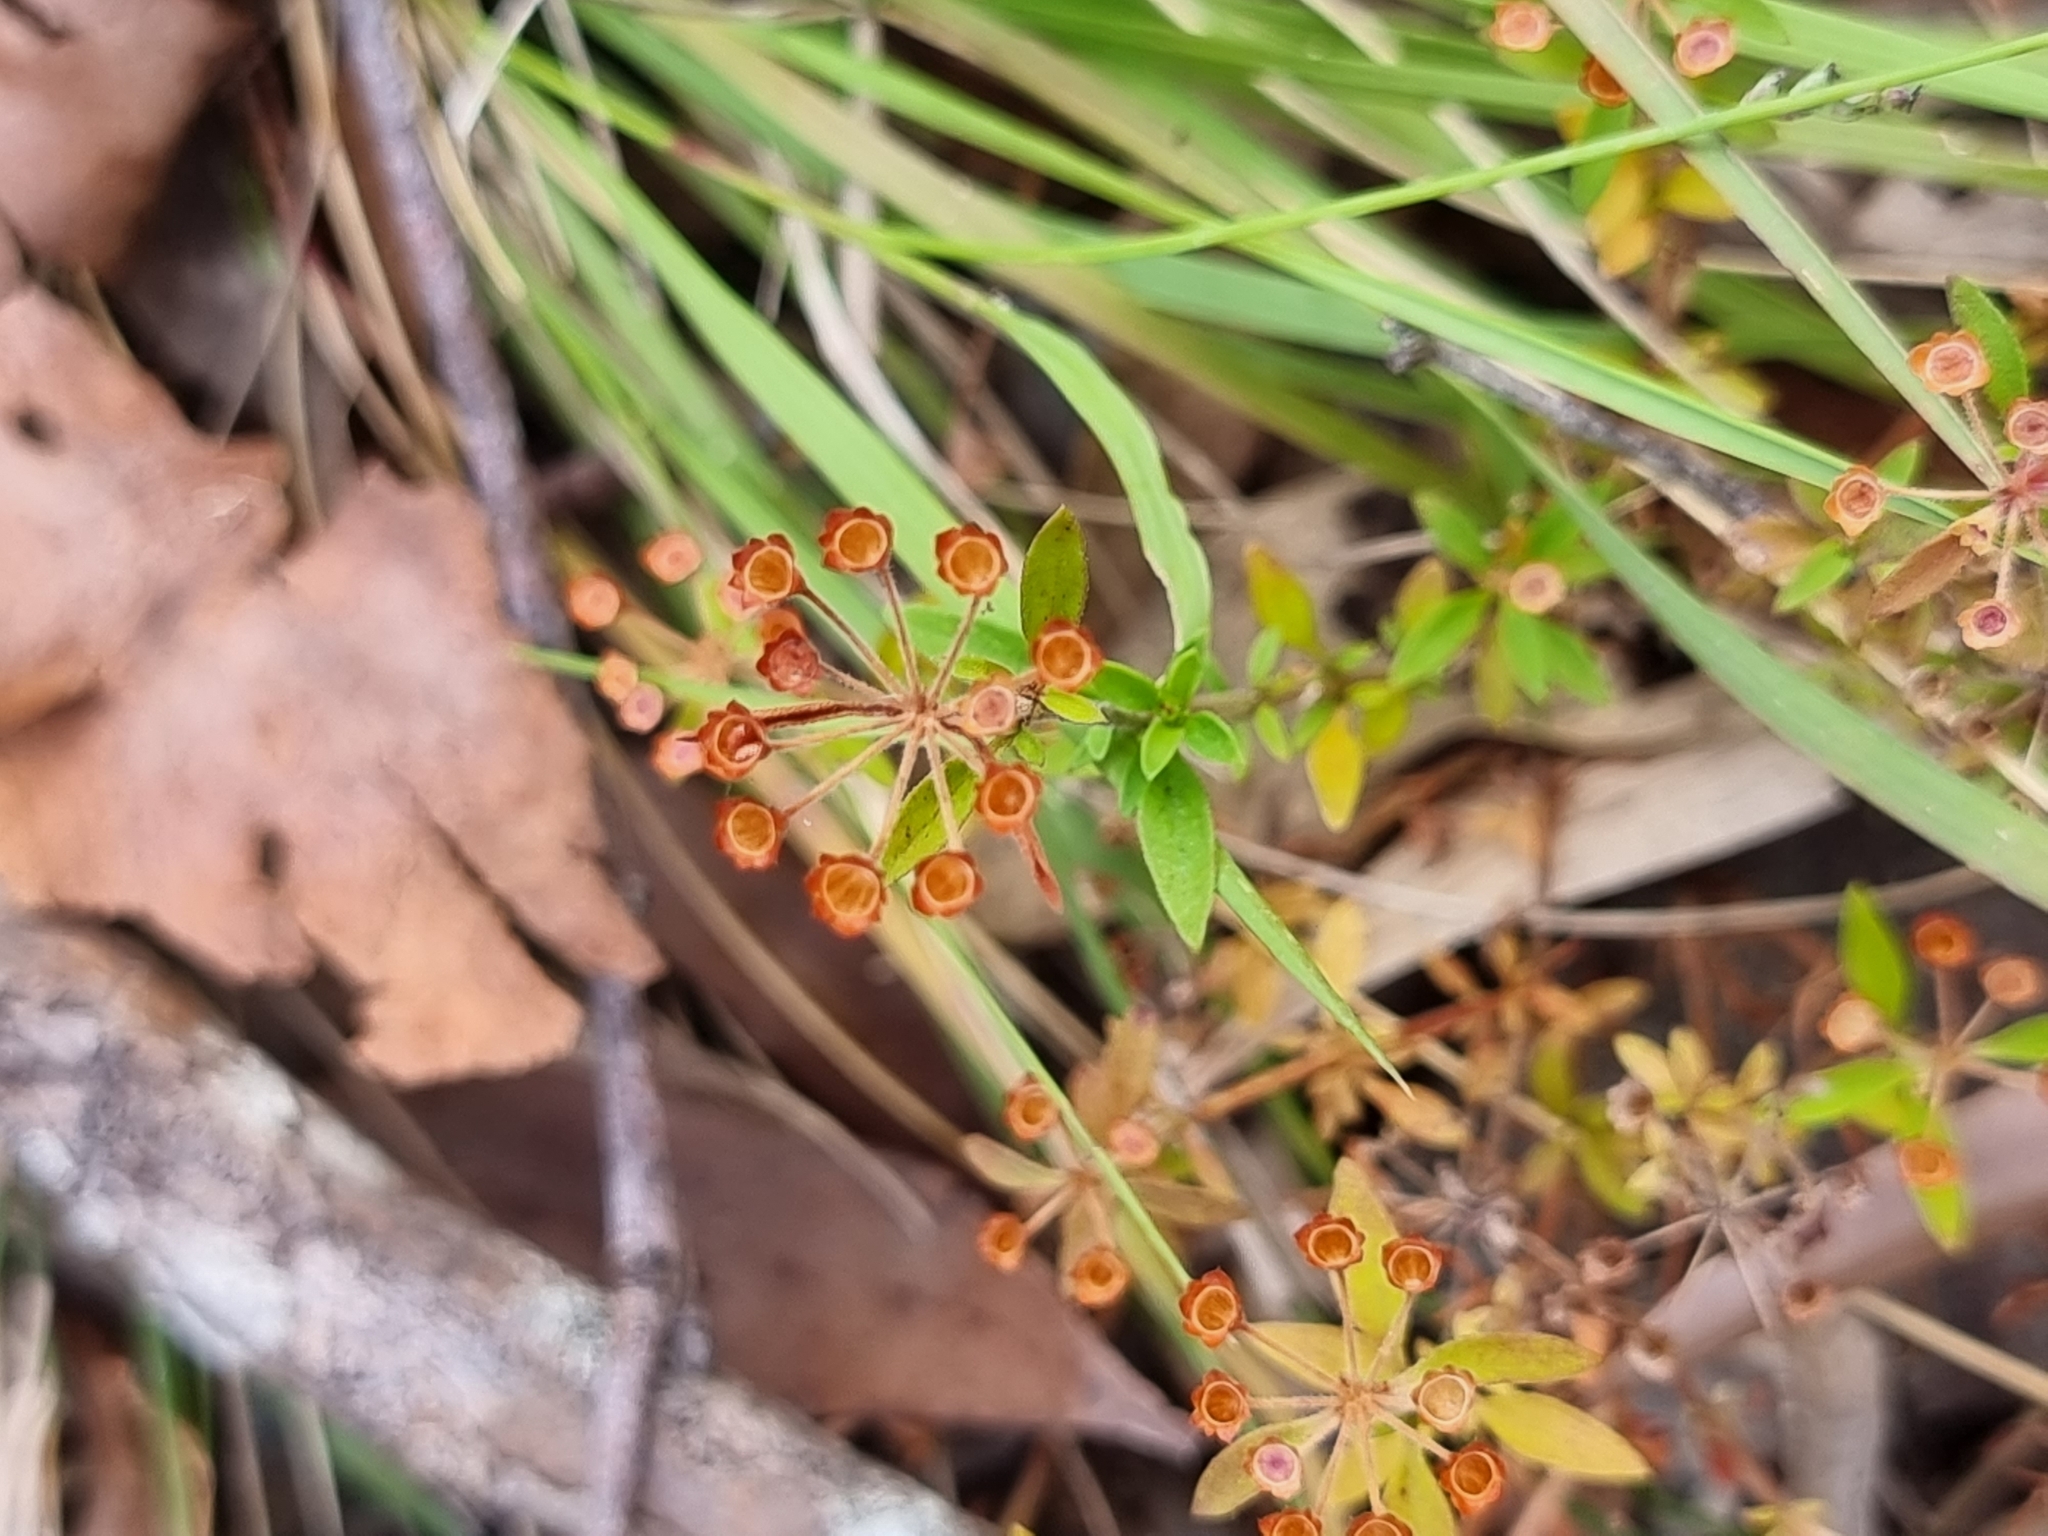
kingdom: Plantae
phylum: Tracheophyta
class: Magnoliopsida
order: Gentianales
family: Rubiaceae
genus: Pomax
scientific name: Pomax umbellata
